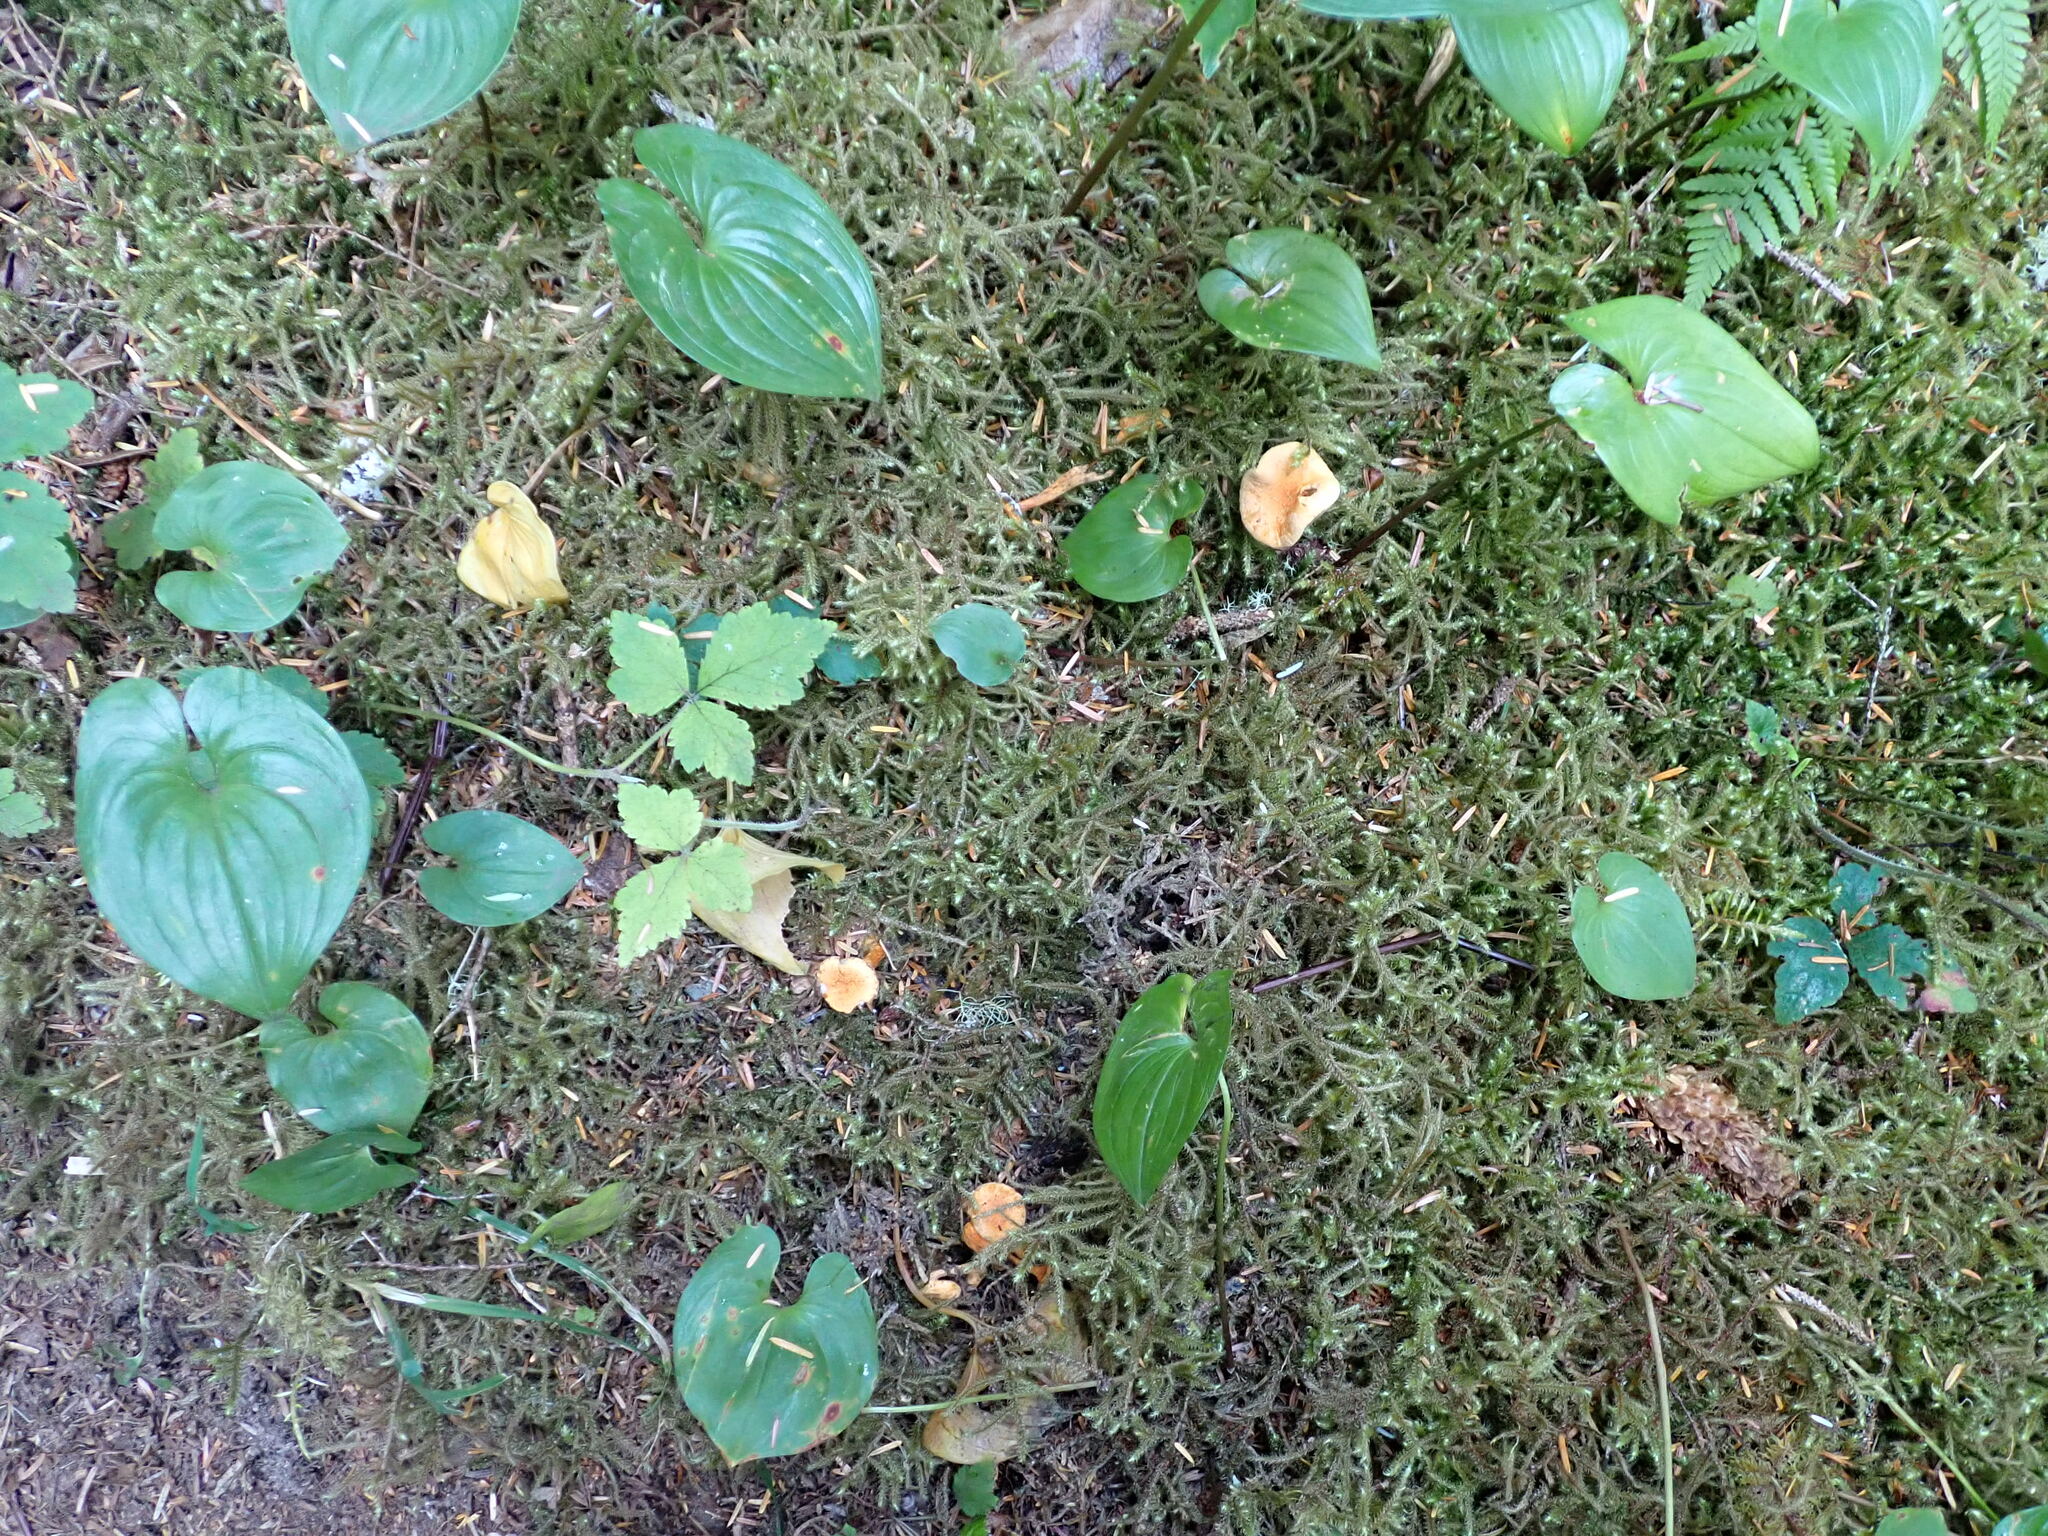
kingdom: Plantae
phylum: Tracheophyta
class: Liliopsida
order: Asparagales
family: Asparagaceae
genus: Maianthemum
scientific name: Maianthemum dilatatum
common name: False lily-of-the-valley
